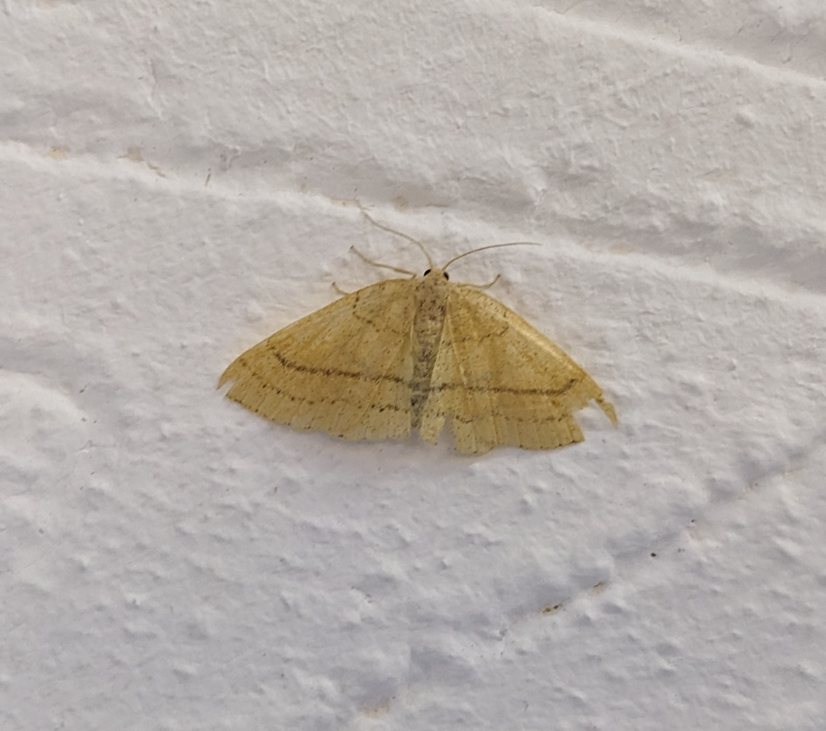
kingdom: Animalia
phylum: Arthropoda
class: Insecta
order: Lepidoptera
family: Geometridae
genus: Cyclophora
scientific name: Cyclophora linearia
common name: Clay triple-lines
